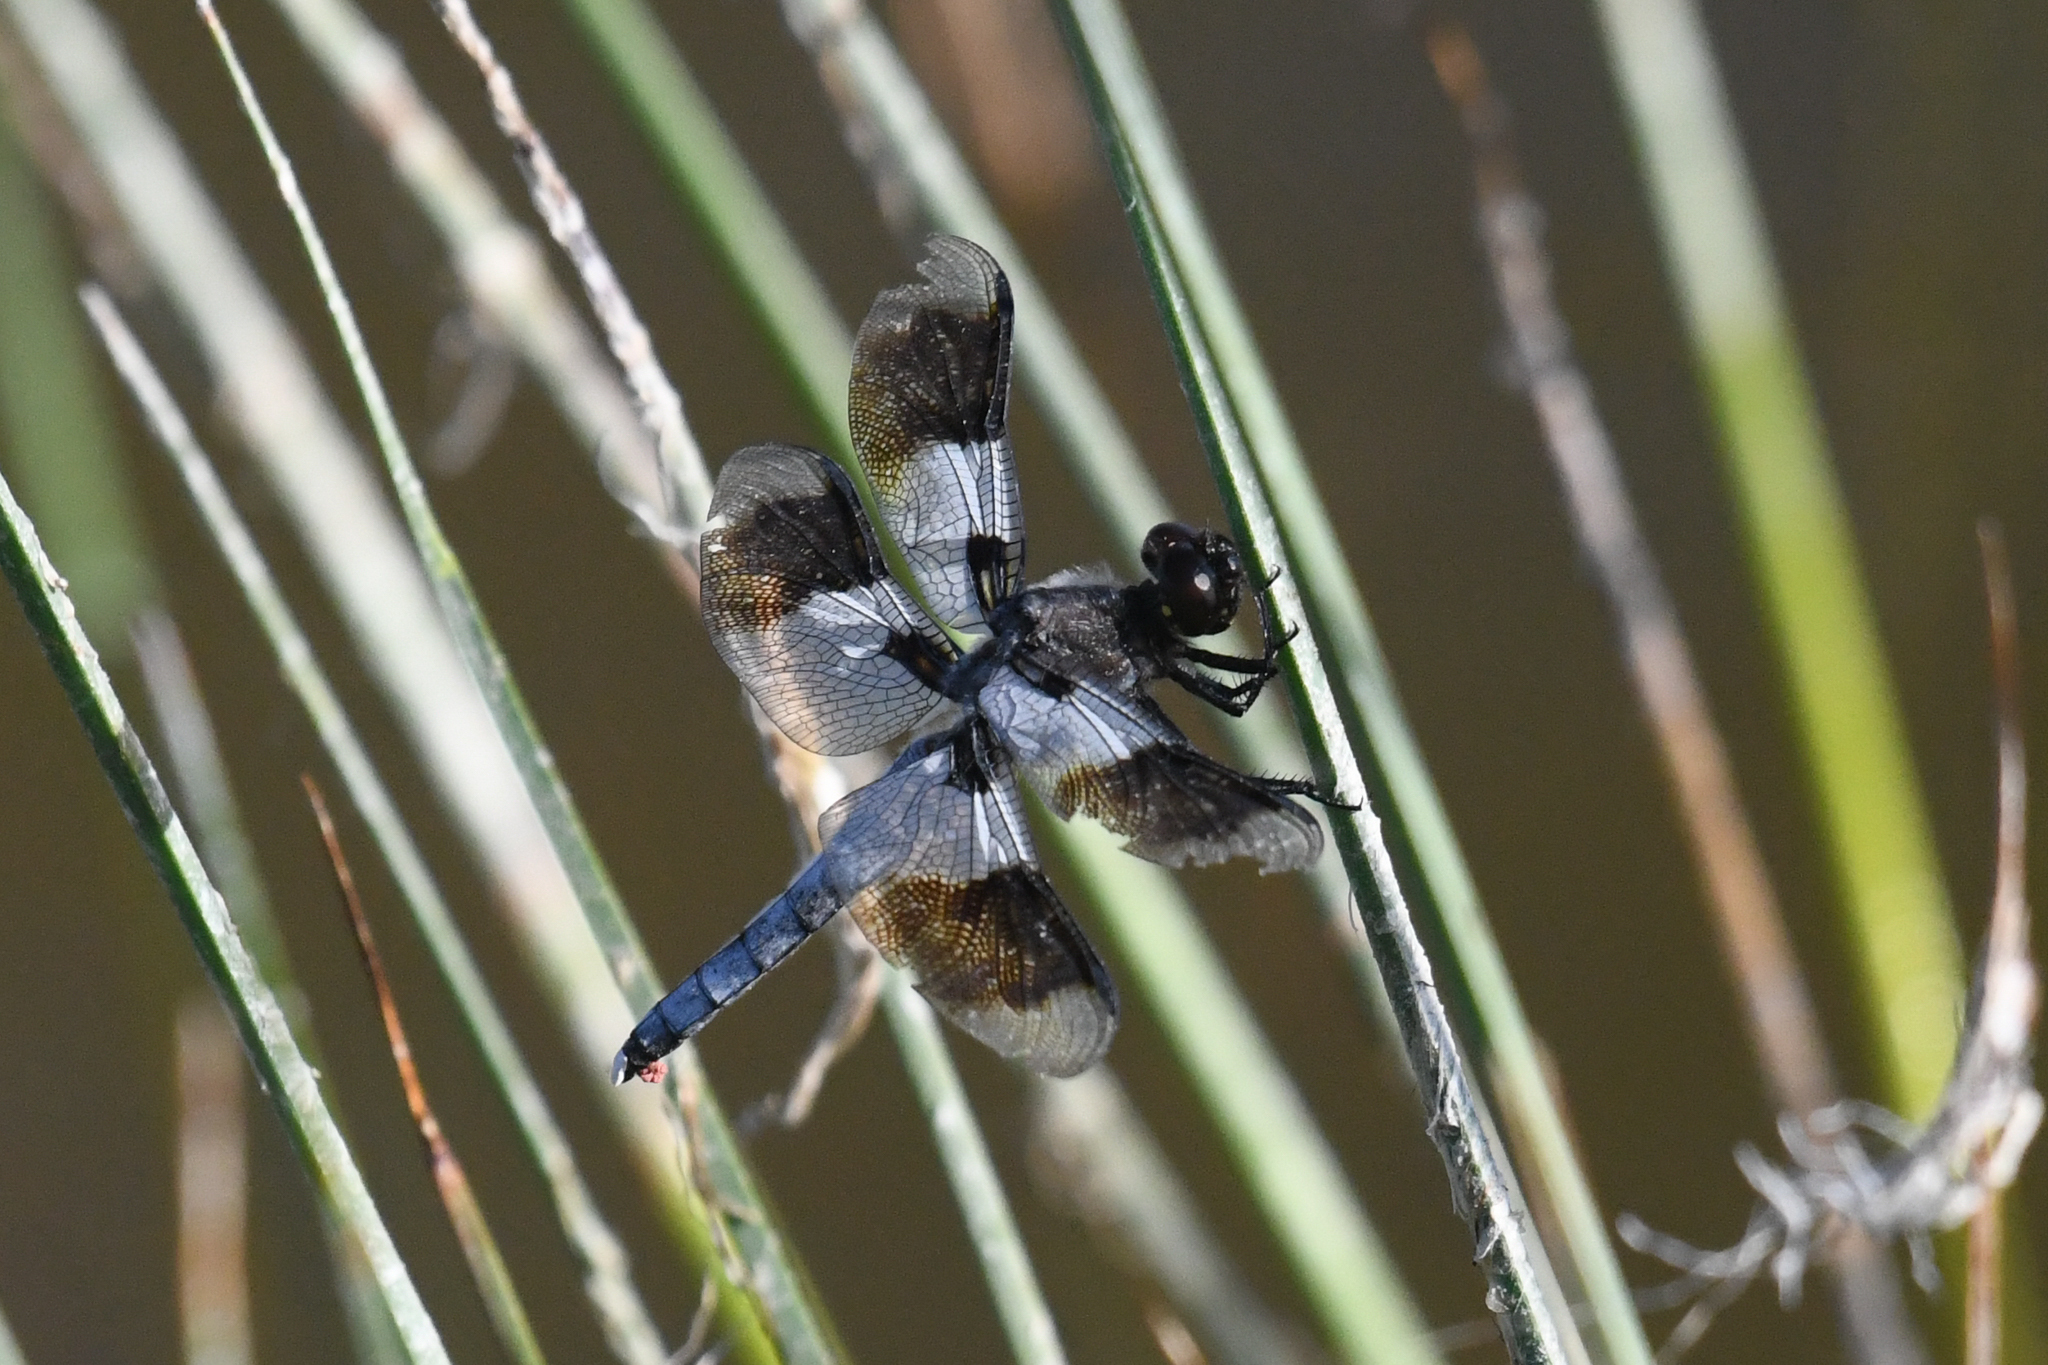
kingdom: Animalia
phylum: Arthropoda
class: Insecta
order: Odonata
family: Libellulidae
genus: Plathemis
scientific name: Plathemis subornata
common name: Desert whitetail
